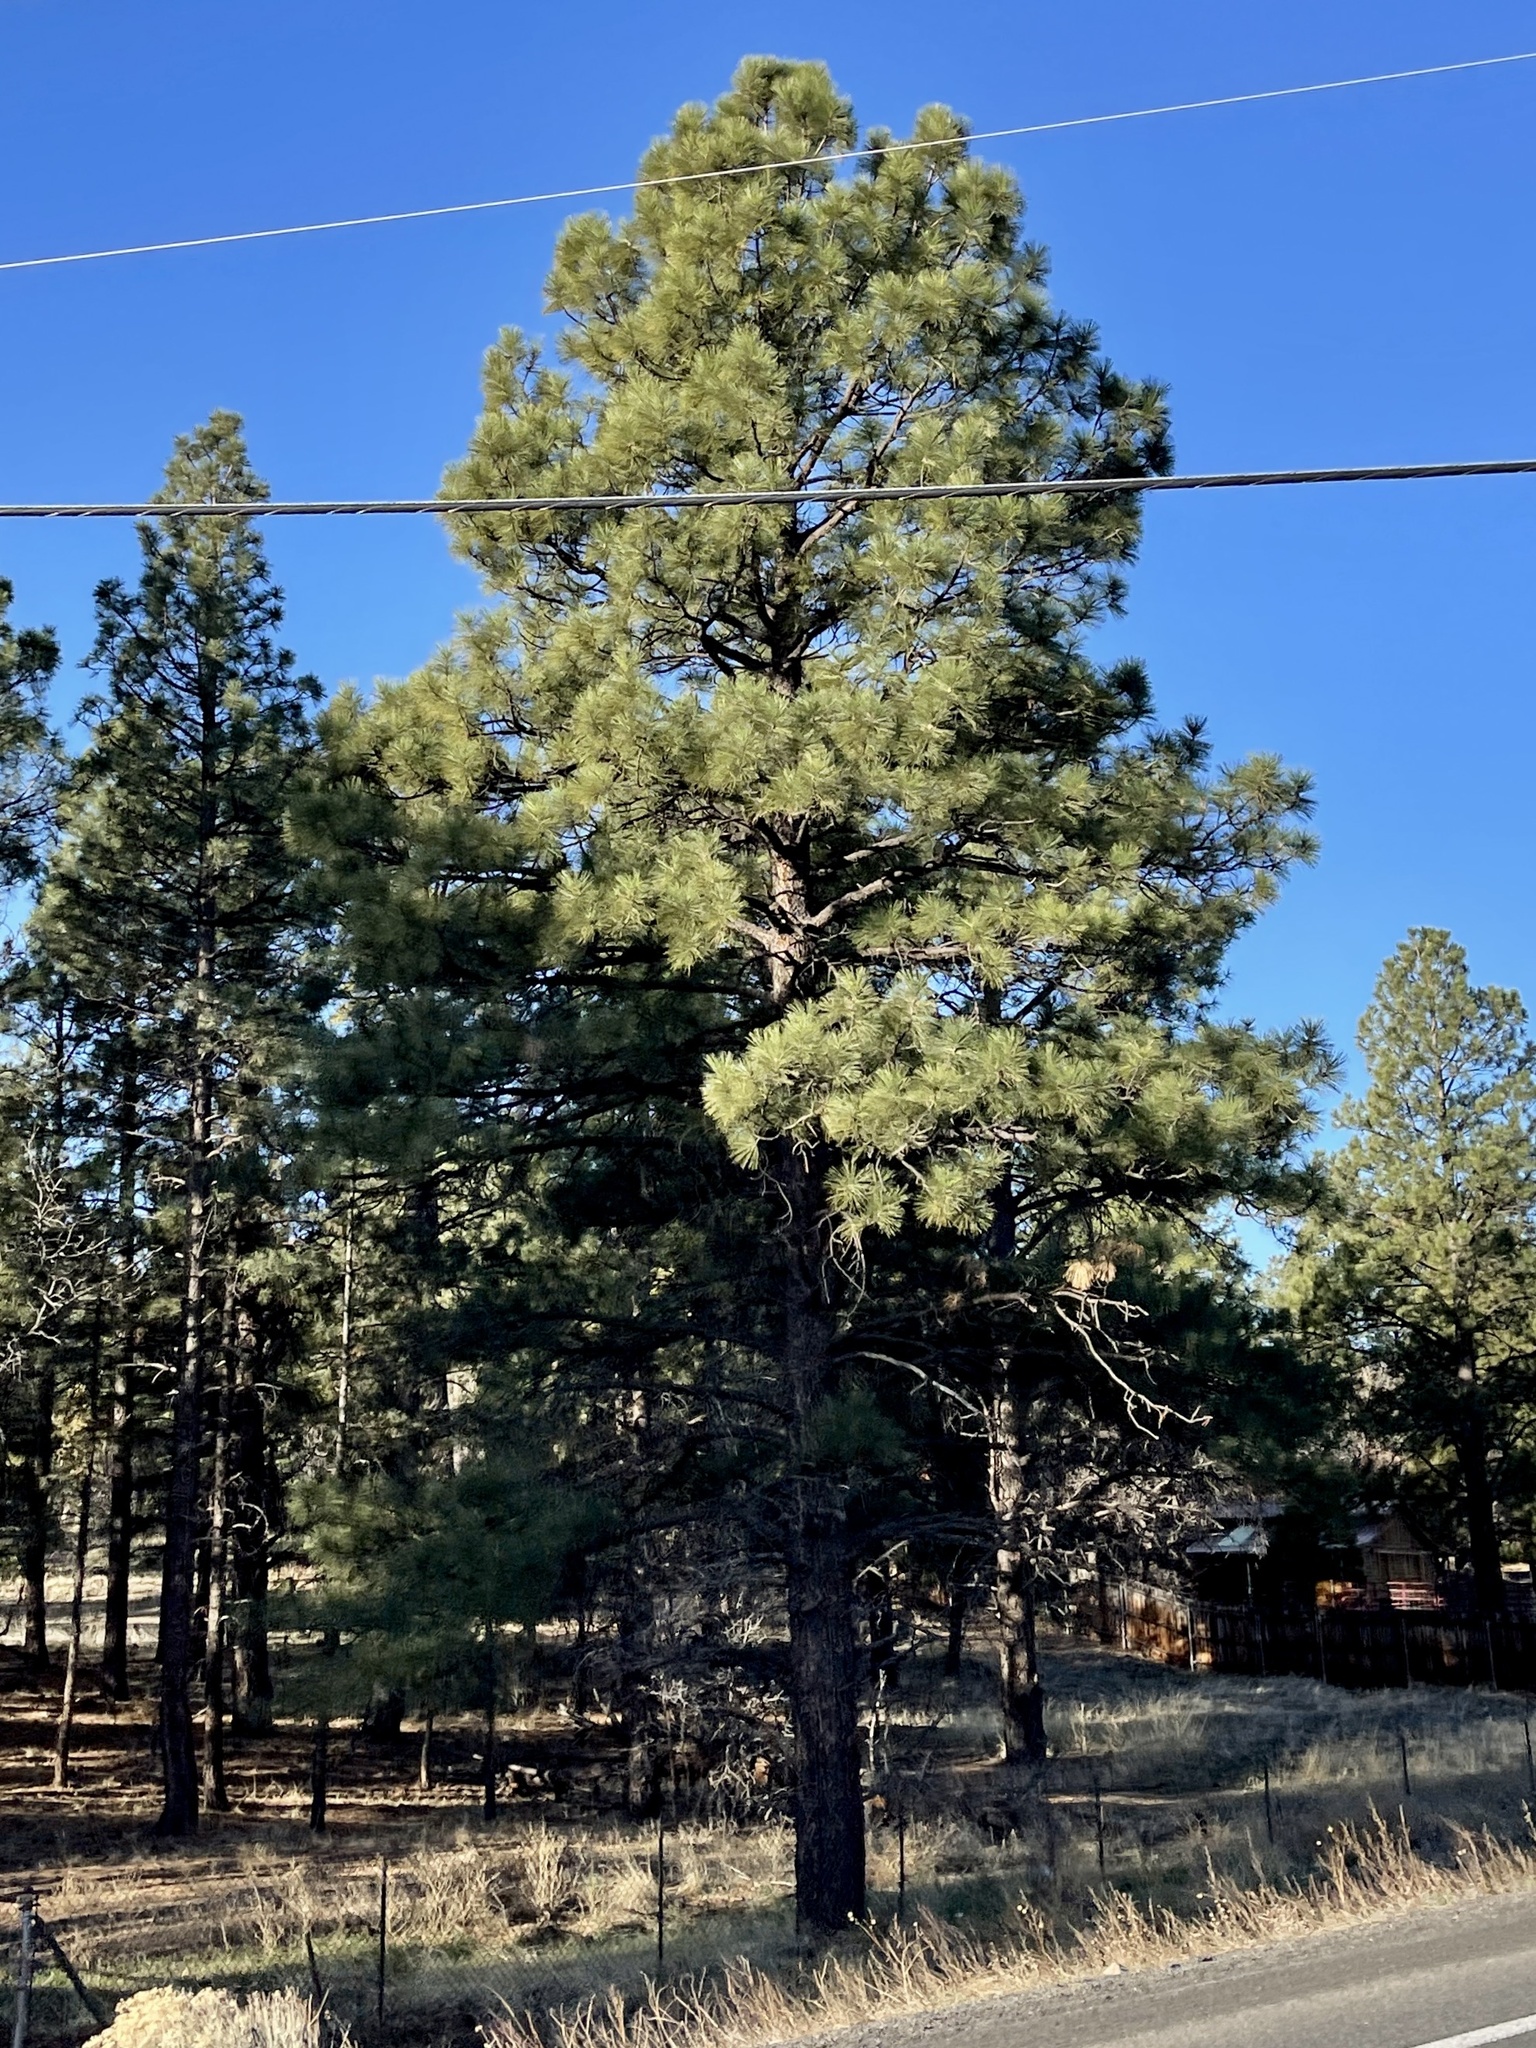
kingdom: Plantae
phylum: Tracheophyta
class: Pinopsida
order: Pinales
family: Pinaceae
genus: Pinus
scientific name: Pinus ponderosa
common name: Western yellow-pine
